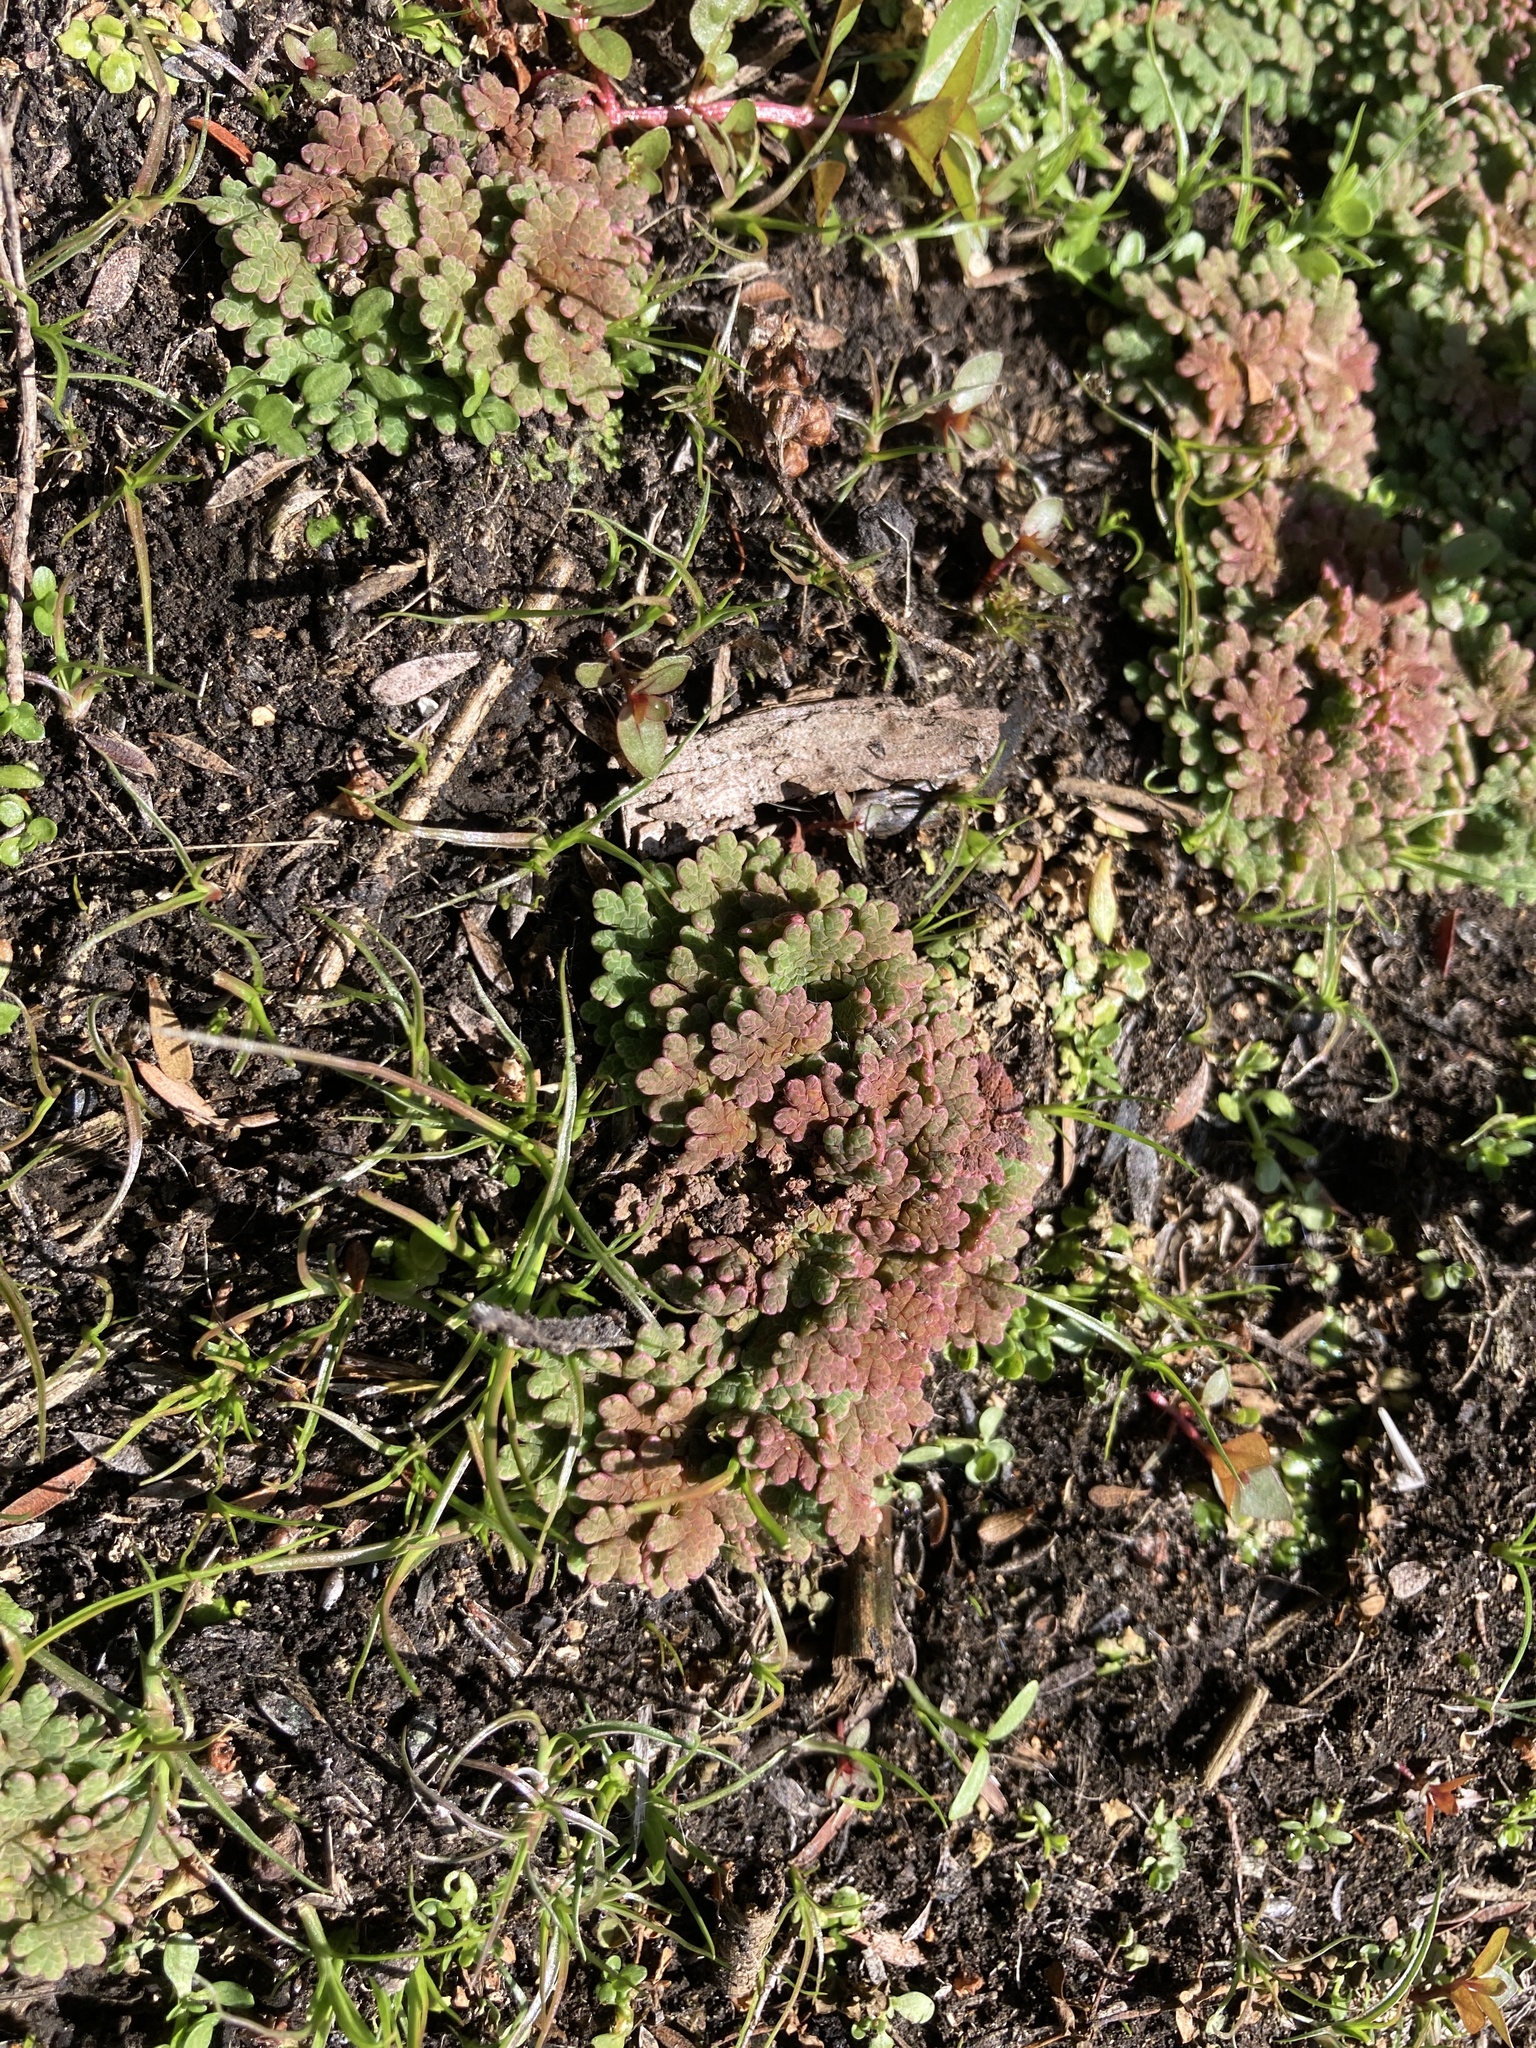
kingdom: Plantae
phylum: Tracheophyta
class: Polypodiopsida
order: Salviniales
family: Salviniaceae
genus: Azolla
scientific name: Azolla rubra
